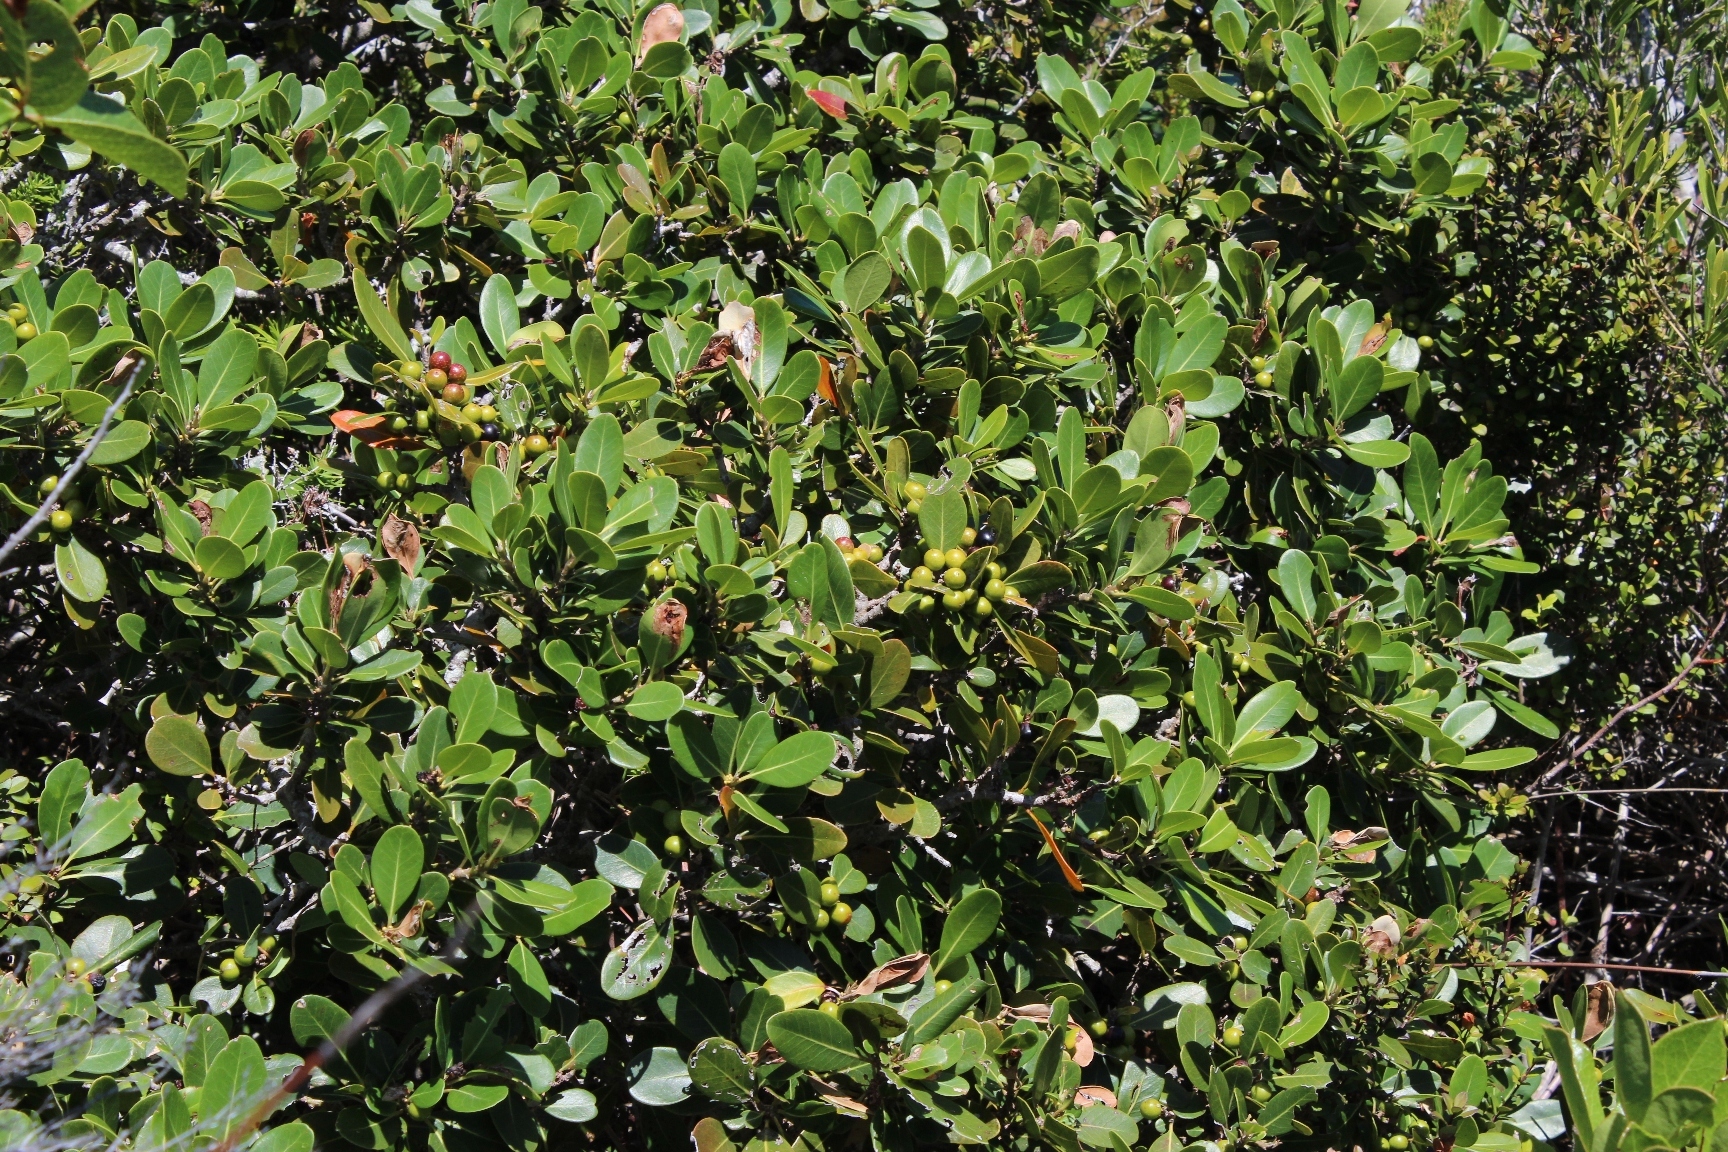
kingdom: Plantae
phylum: Tracheophyta
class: Magnoliopsida
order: Ericales
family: Sapotaceae
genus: Sideroxylon
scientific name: Sideroxylon inerme
